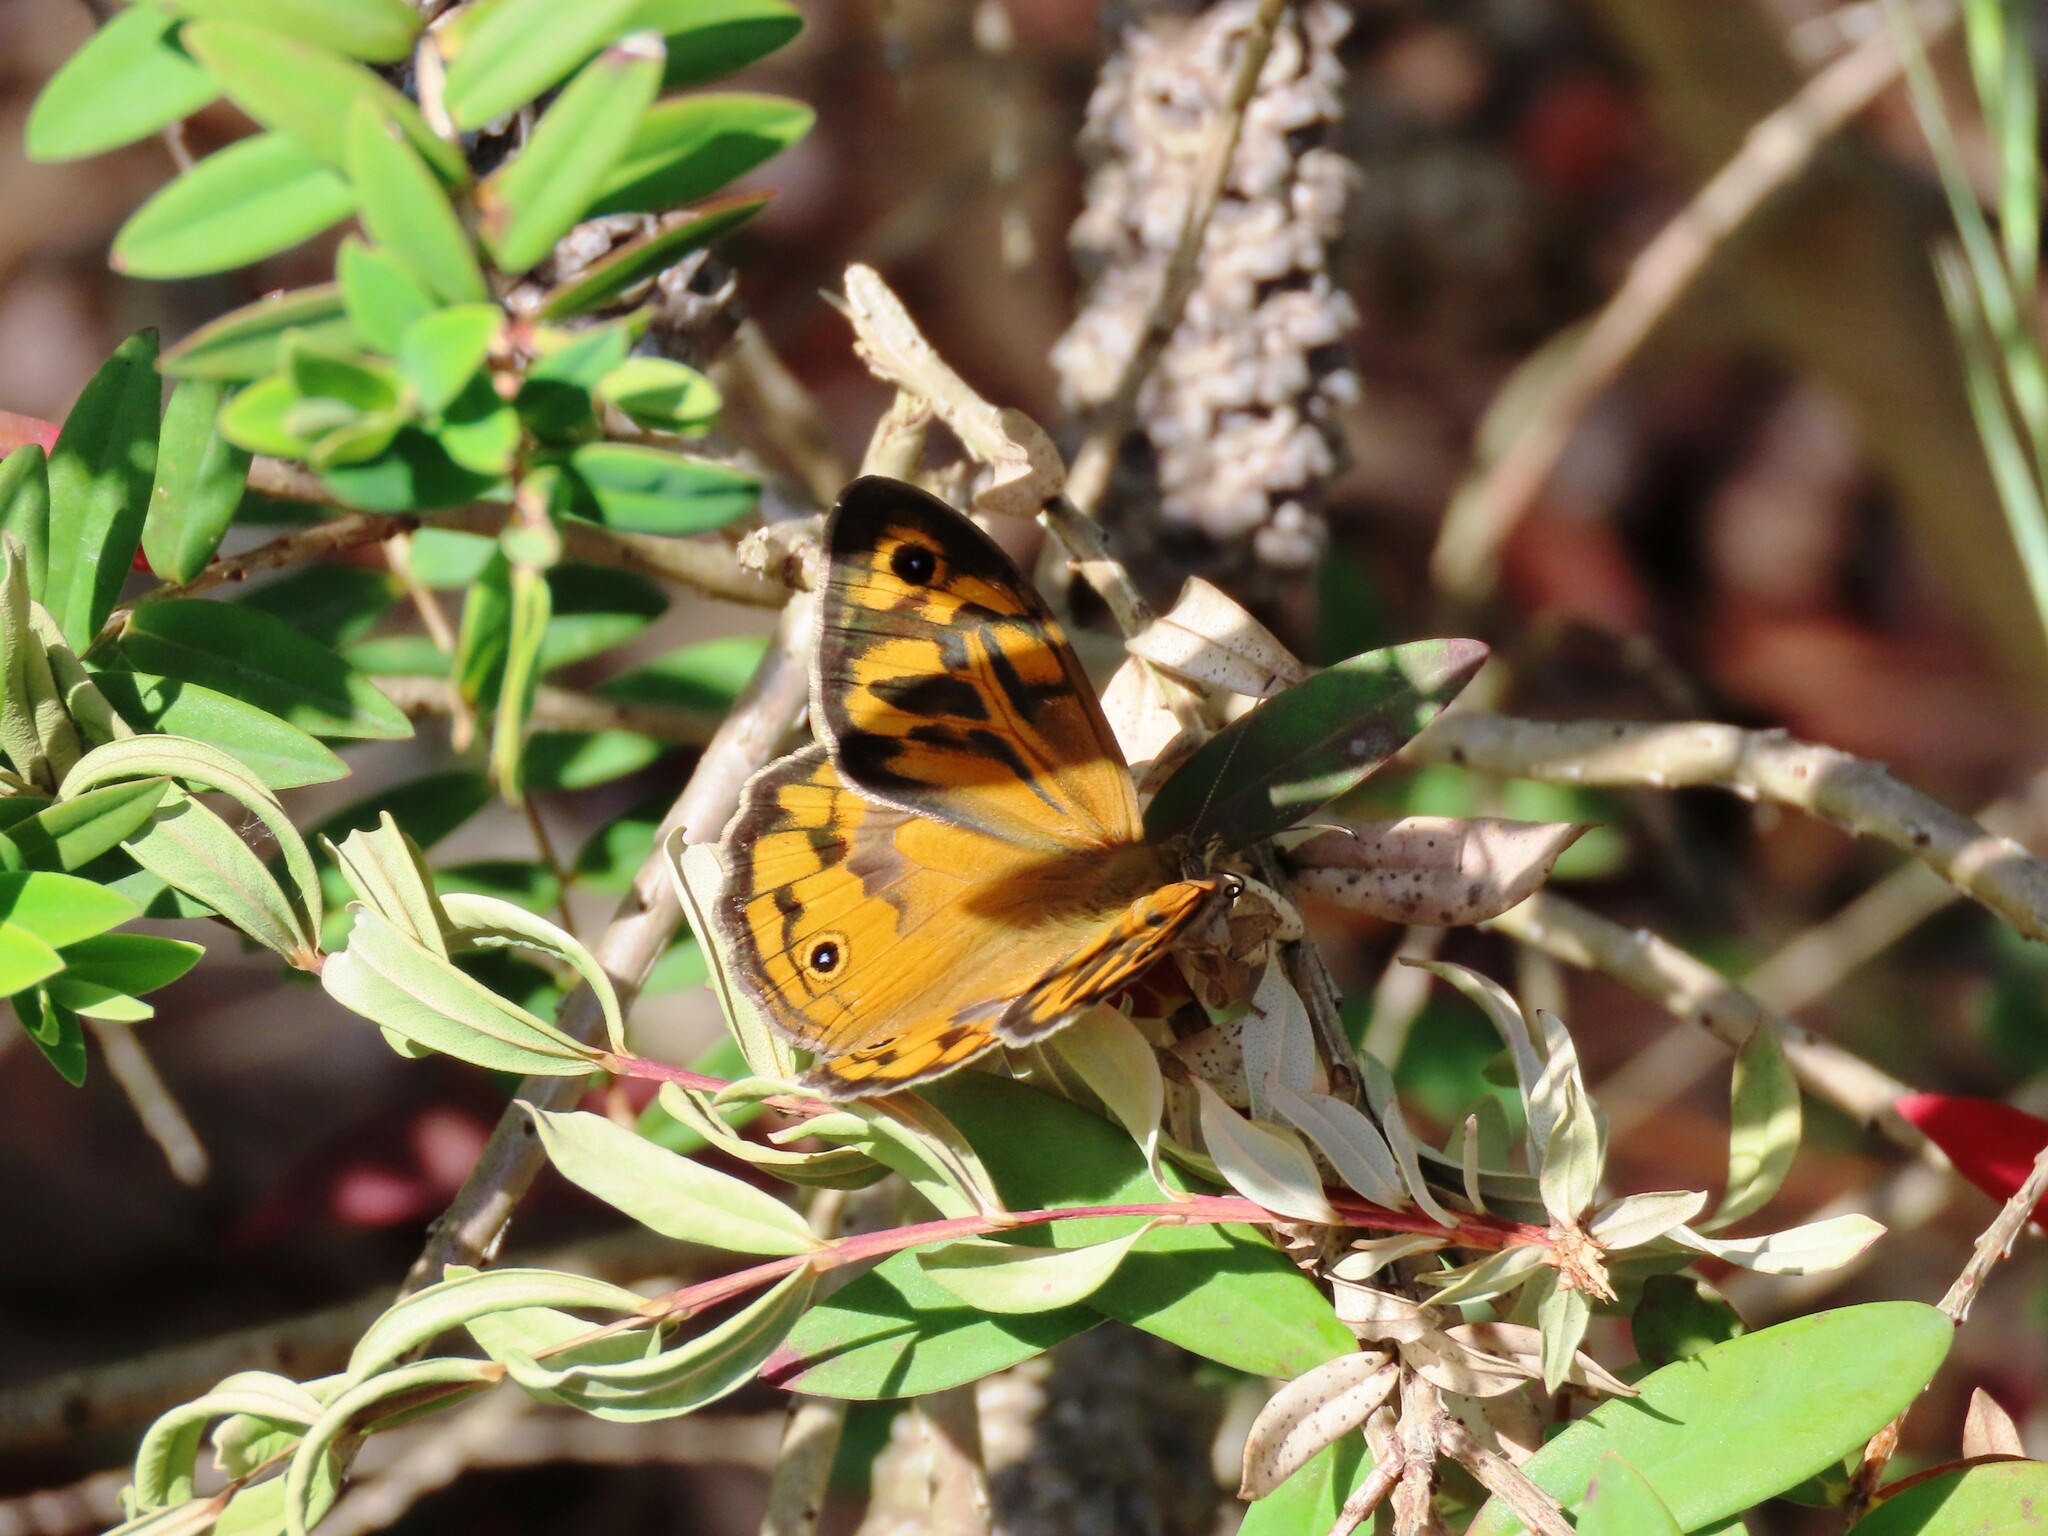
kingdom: Animalia
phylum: Arthropoda
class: Insecta
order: Lepidoptera
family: Nymphalidae
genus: Heteronympha
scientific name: Heteronympha merope
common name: Common brown
